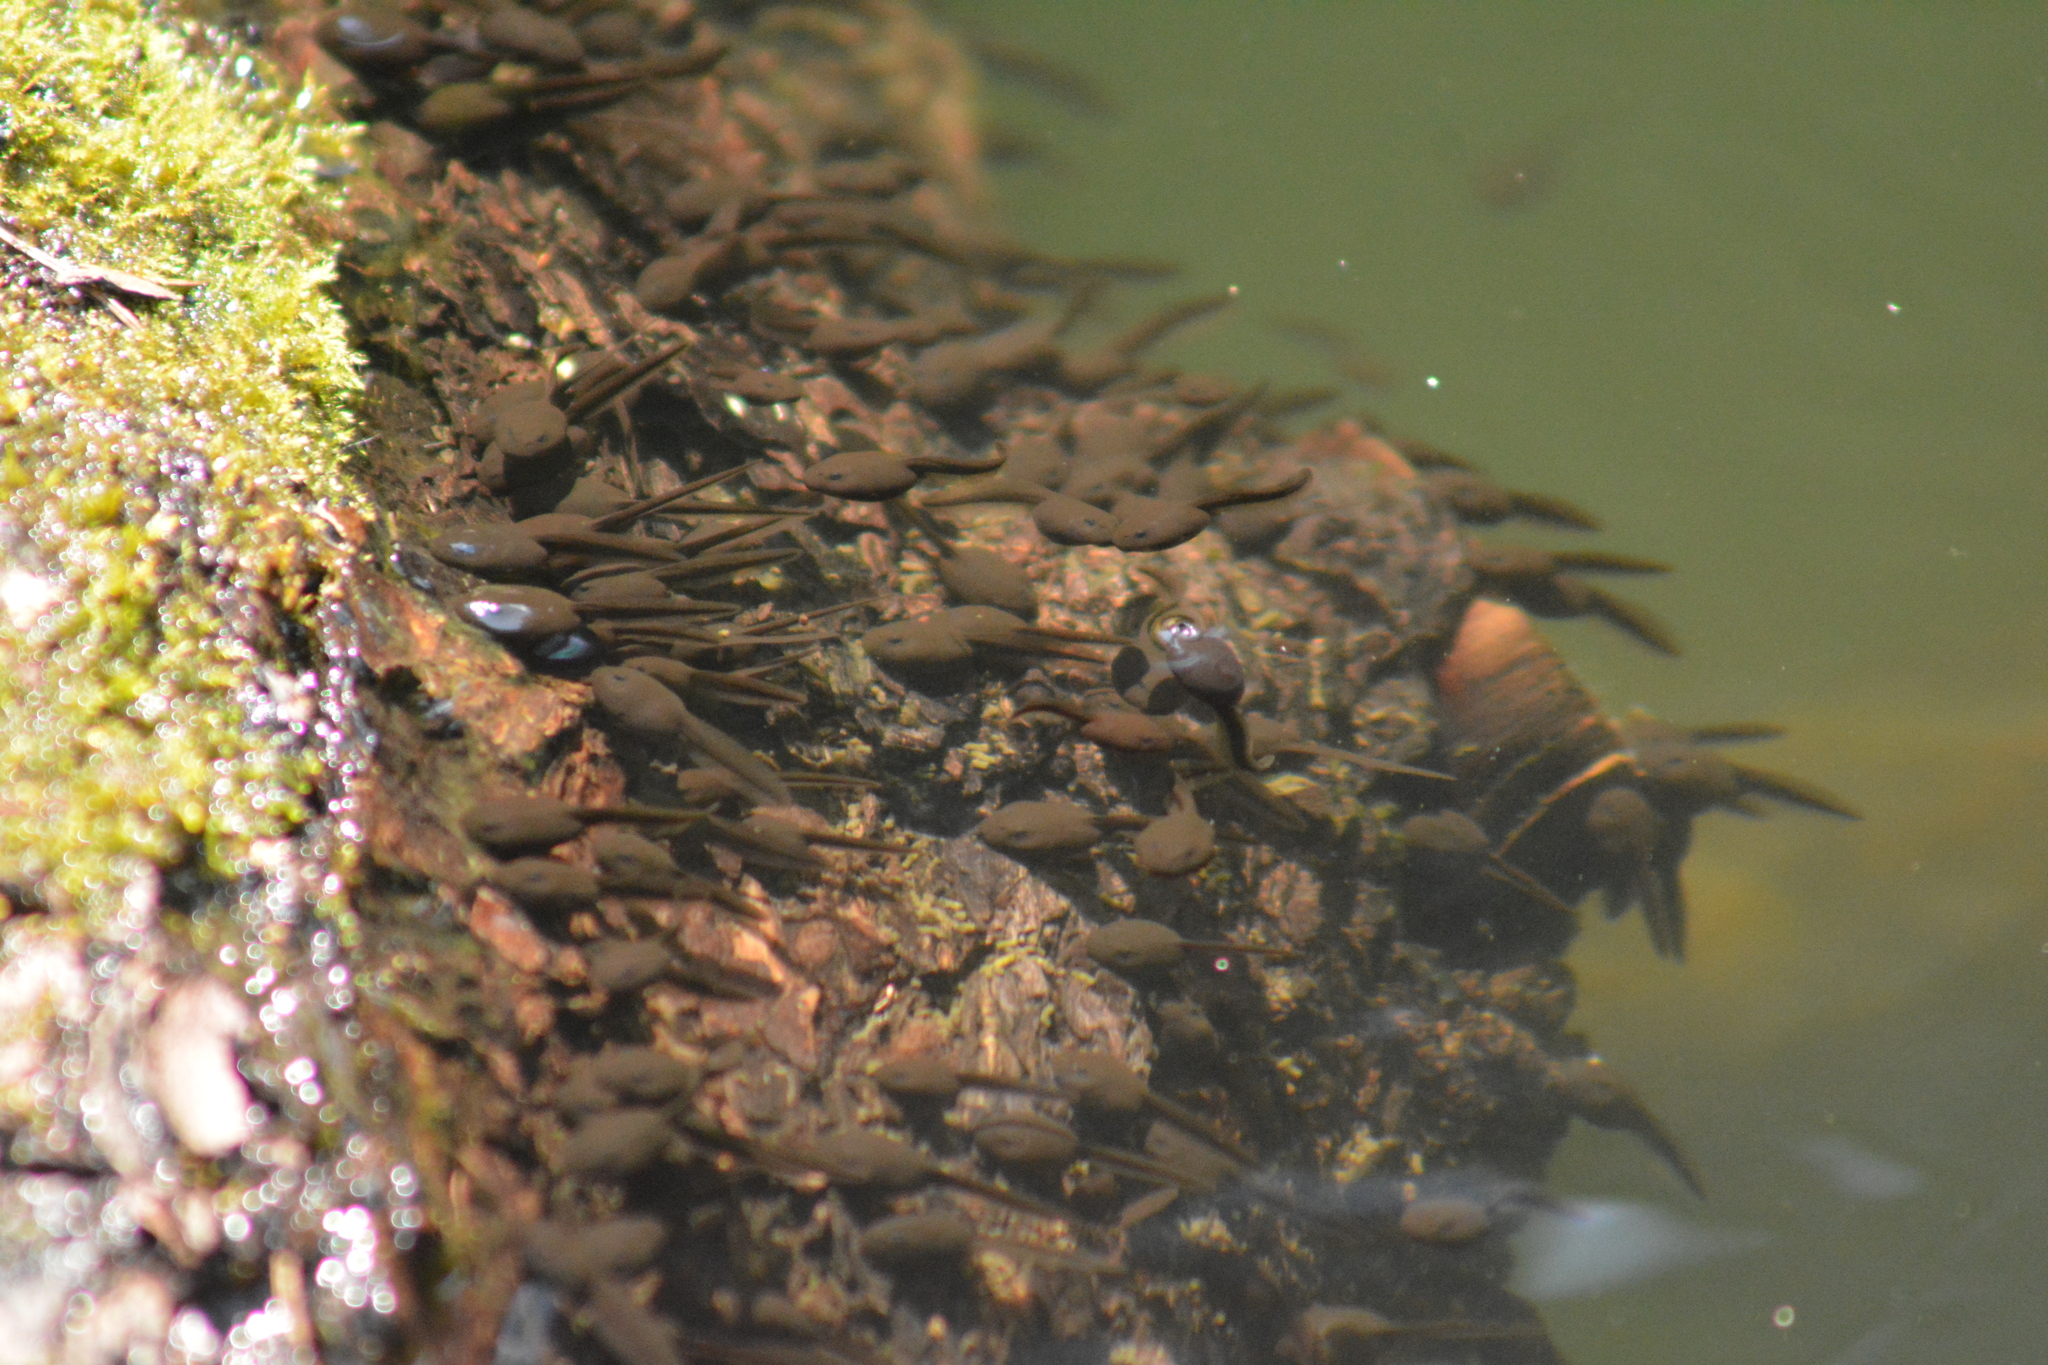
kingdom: Animalia
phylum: Chordata
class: Amphibia
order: Anura
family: Bufonidae
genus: Bufo
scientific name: Bufo bufo
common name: Common toad
